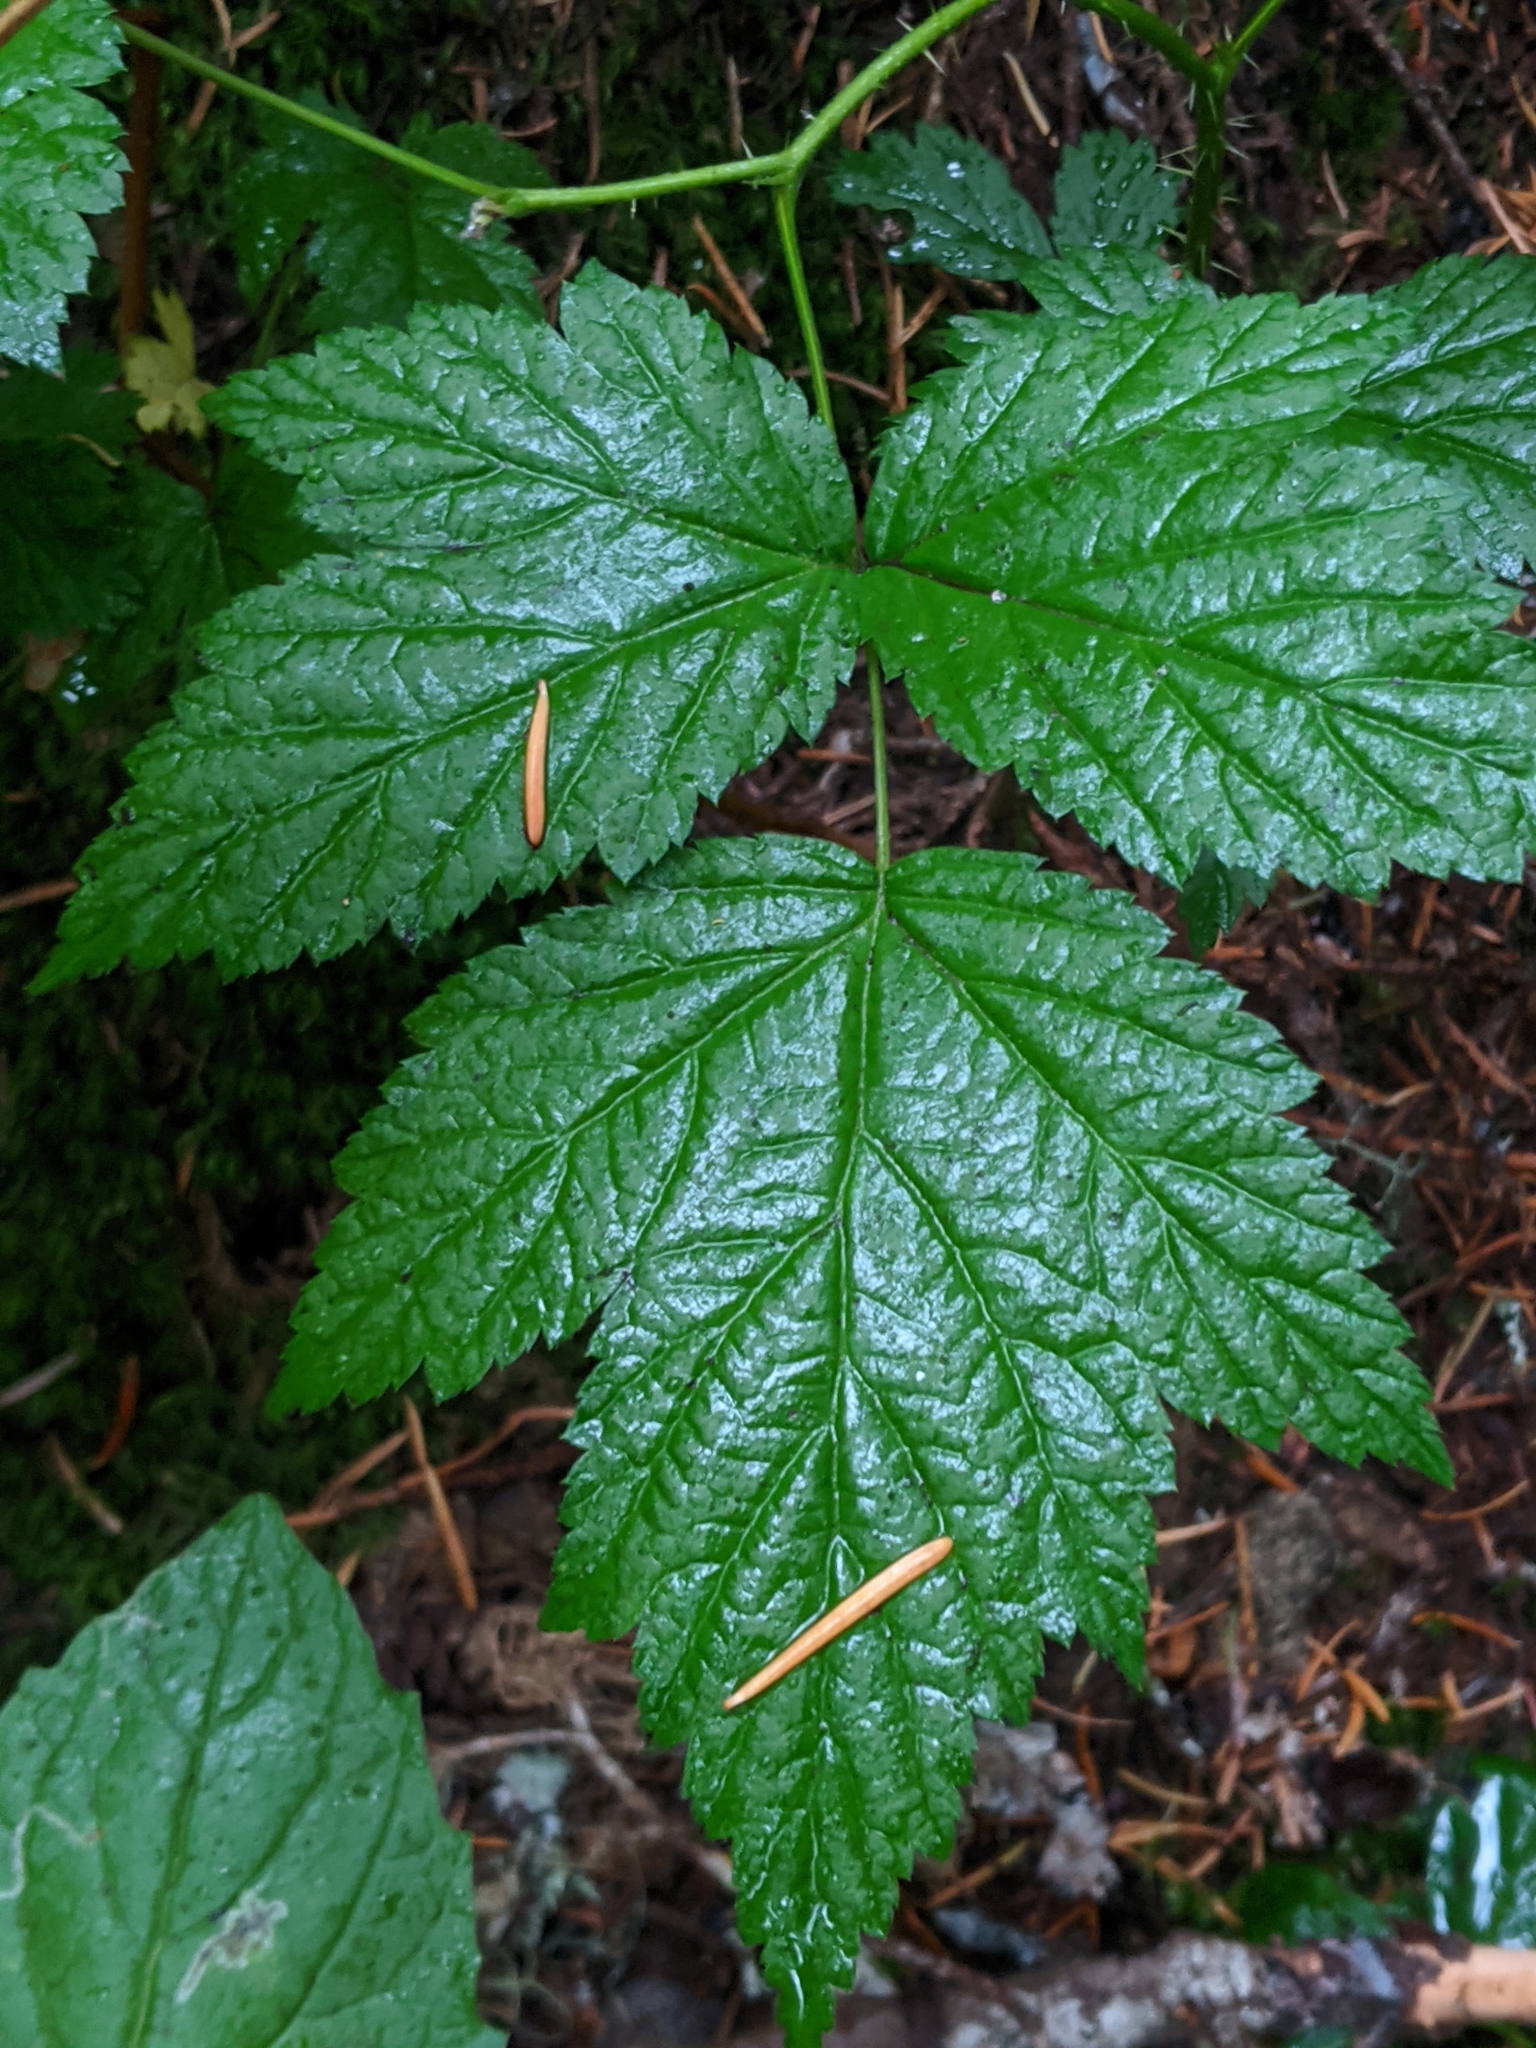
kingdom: Plantae
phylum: Tracheophyta
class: Magnoliopsida
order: Rosales
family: Rosaceae
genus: Rubus
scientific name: Rubus spectabilis
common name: Salmonberry
